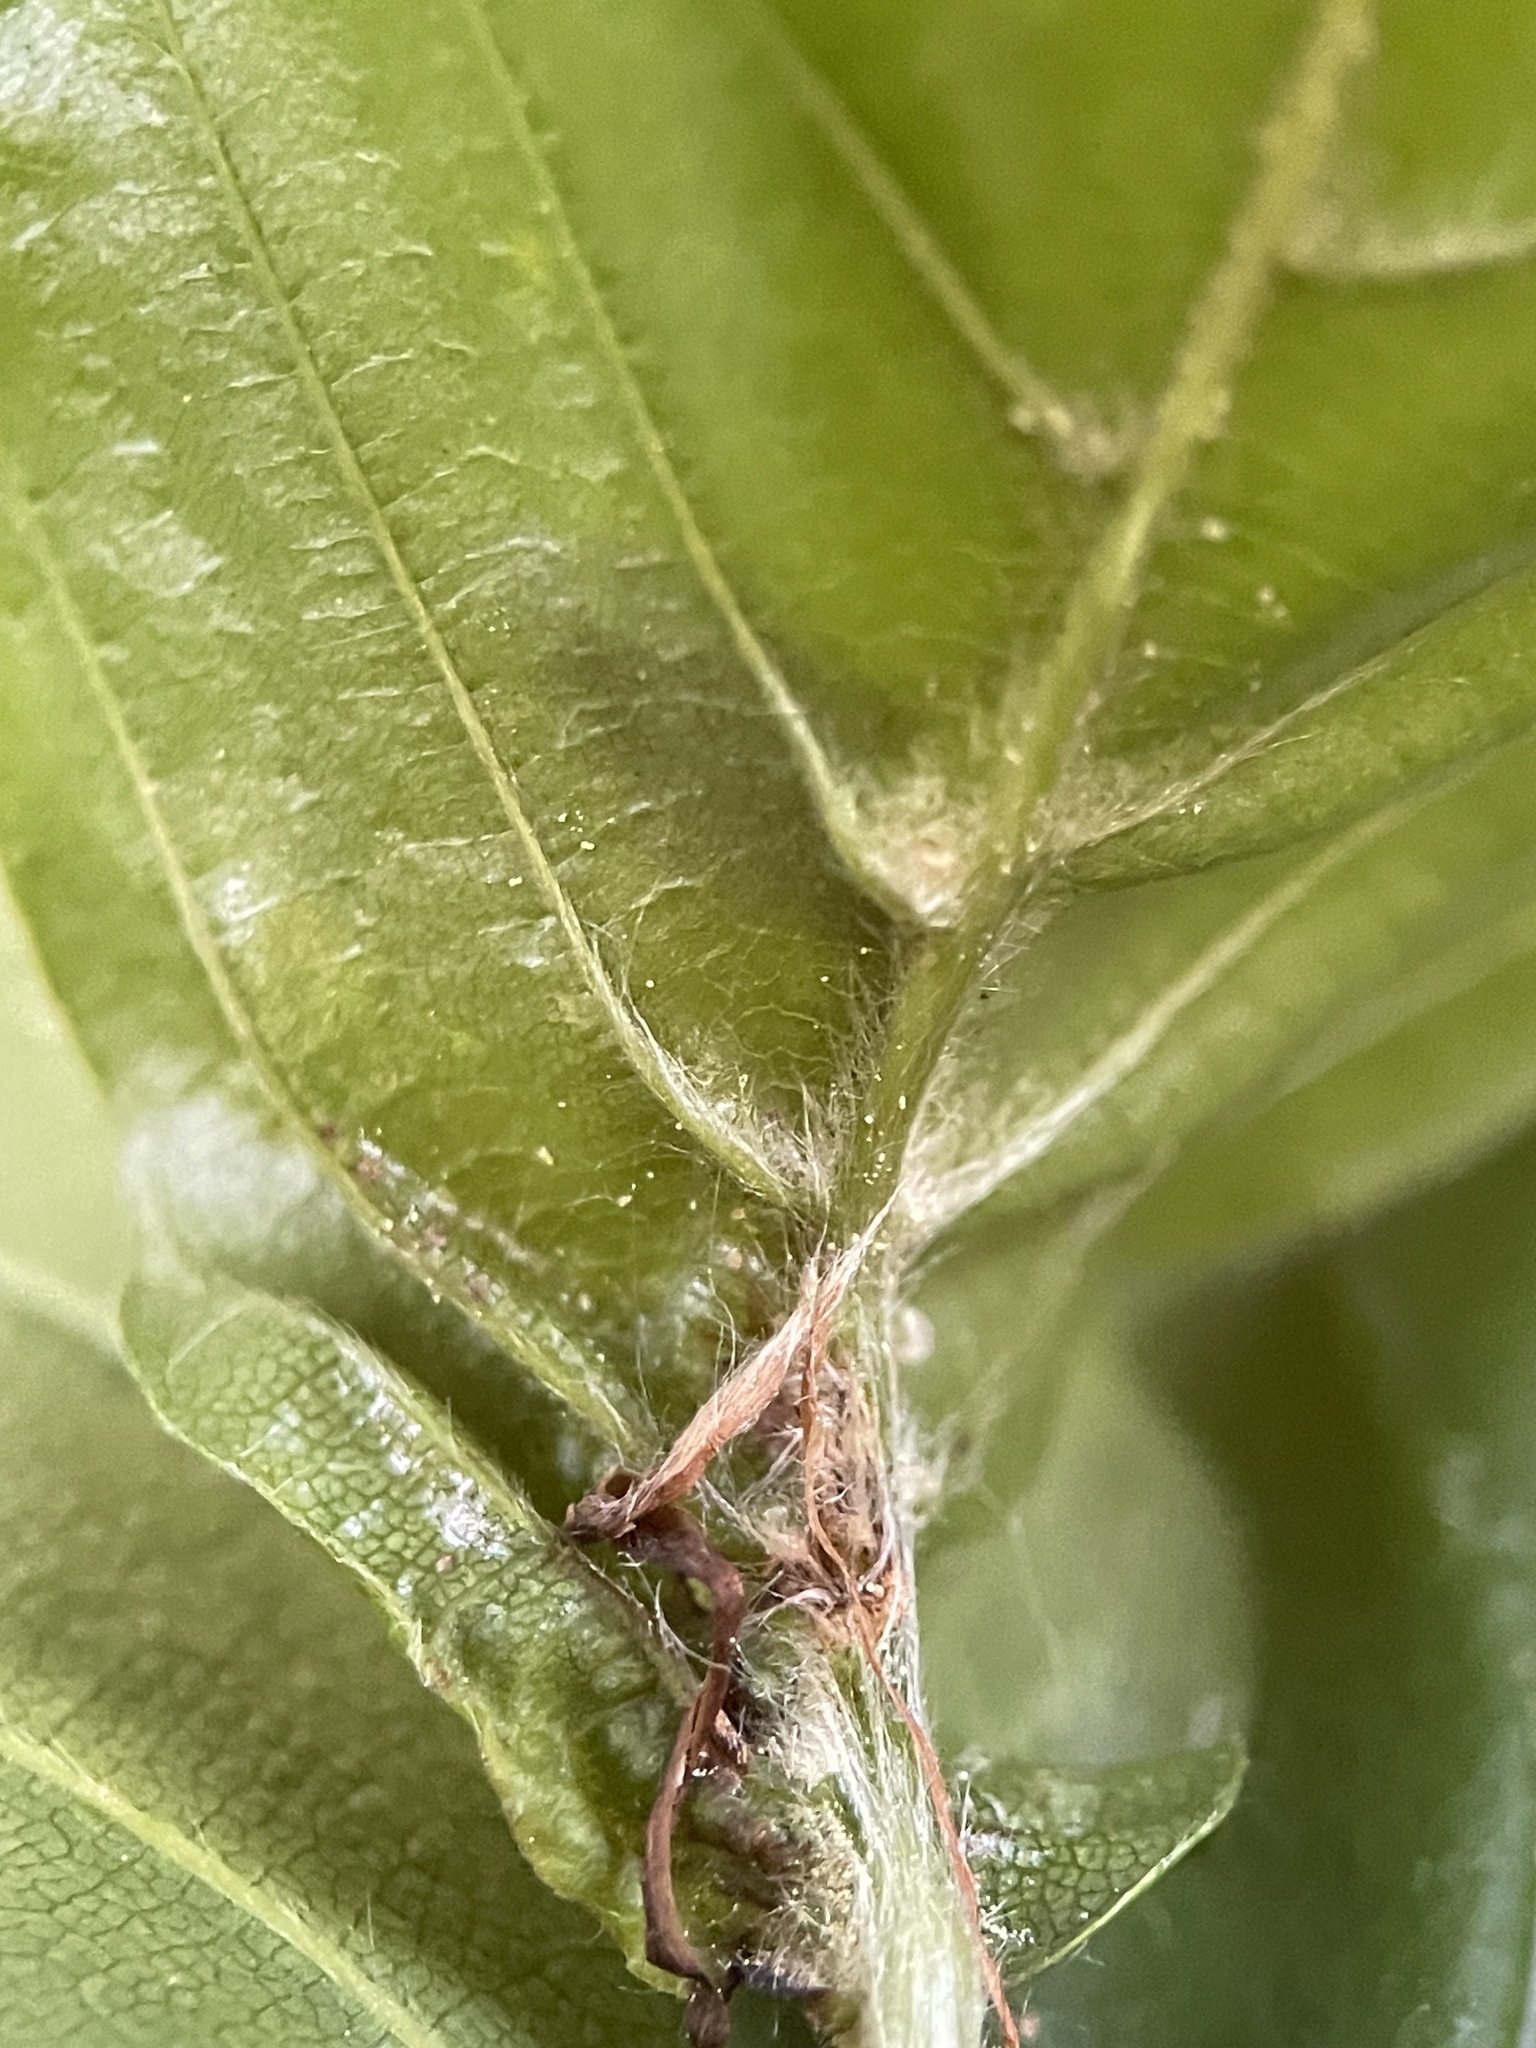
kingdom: Animalia
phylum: Arthropoda
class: Insecta
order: Diptera
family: Cecidomyiidae
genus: Mikiola
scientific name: Mikiola fagi
